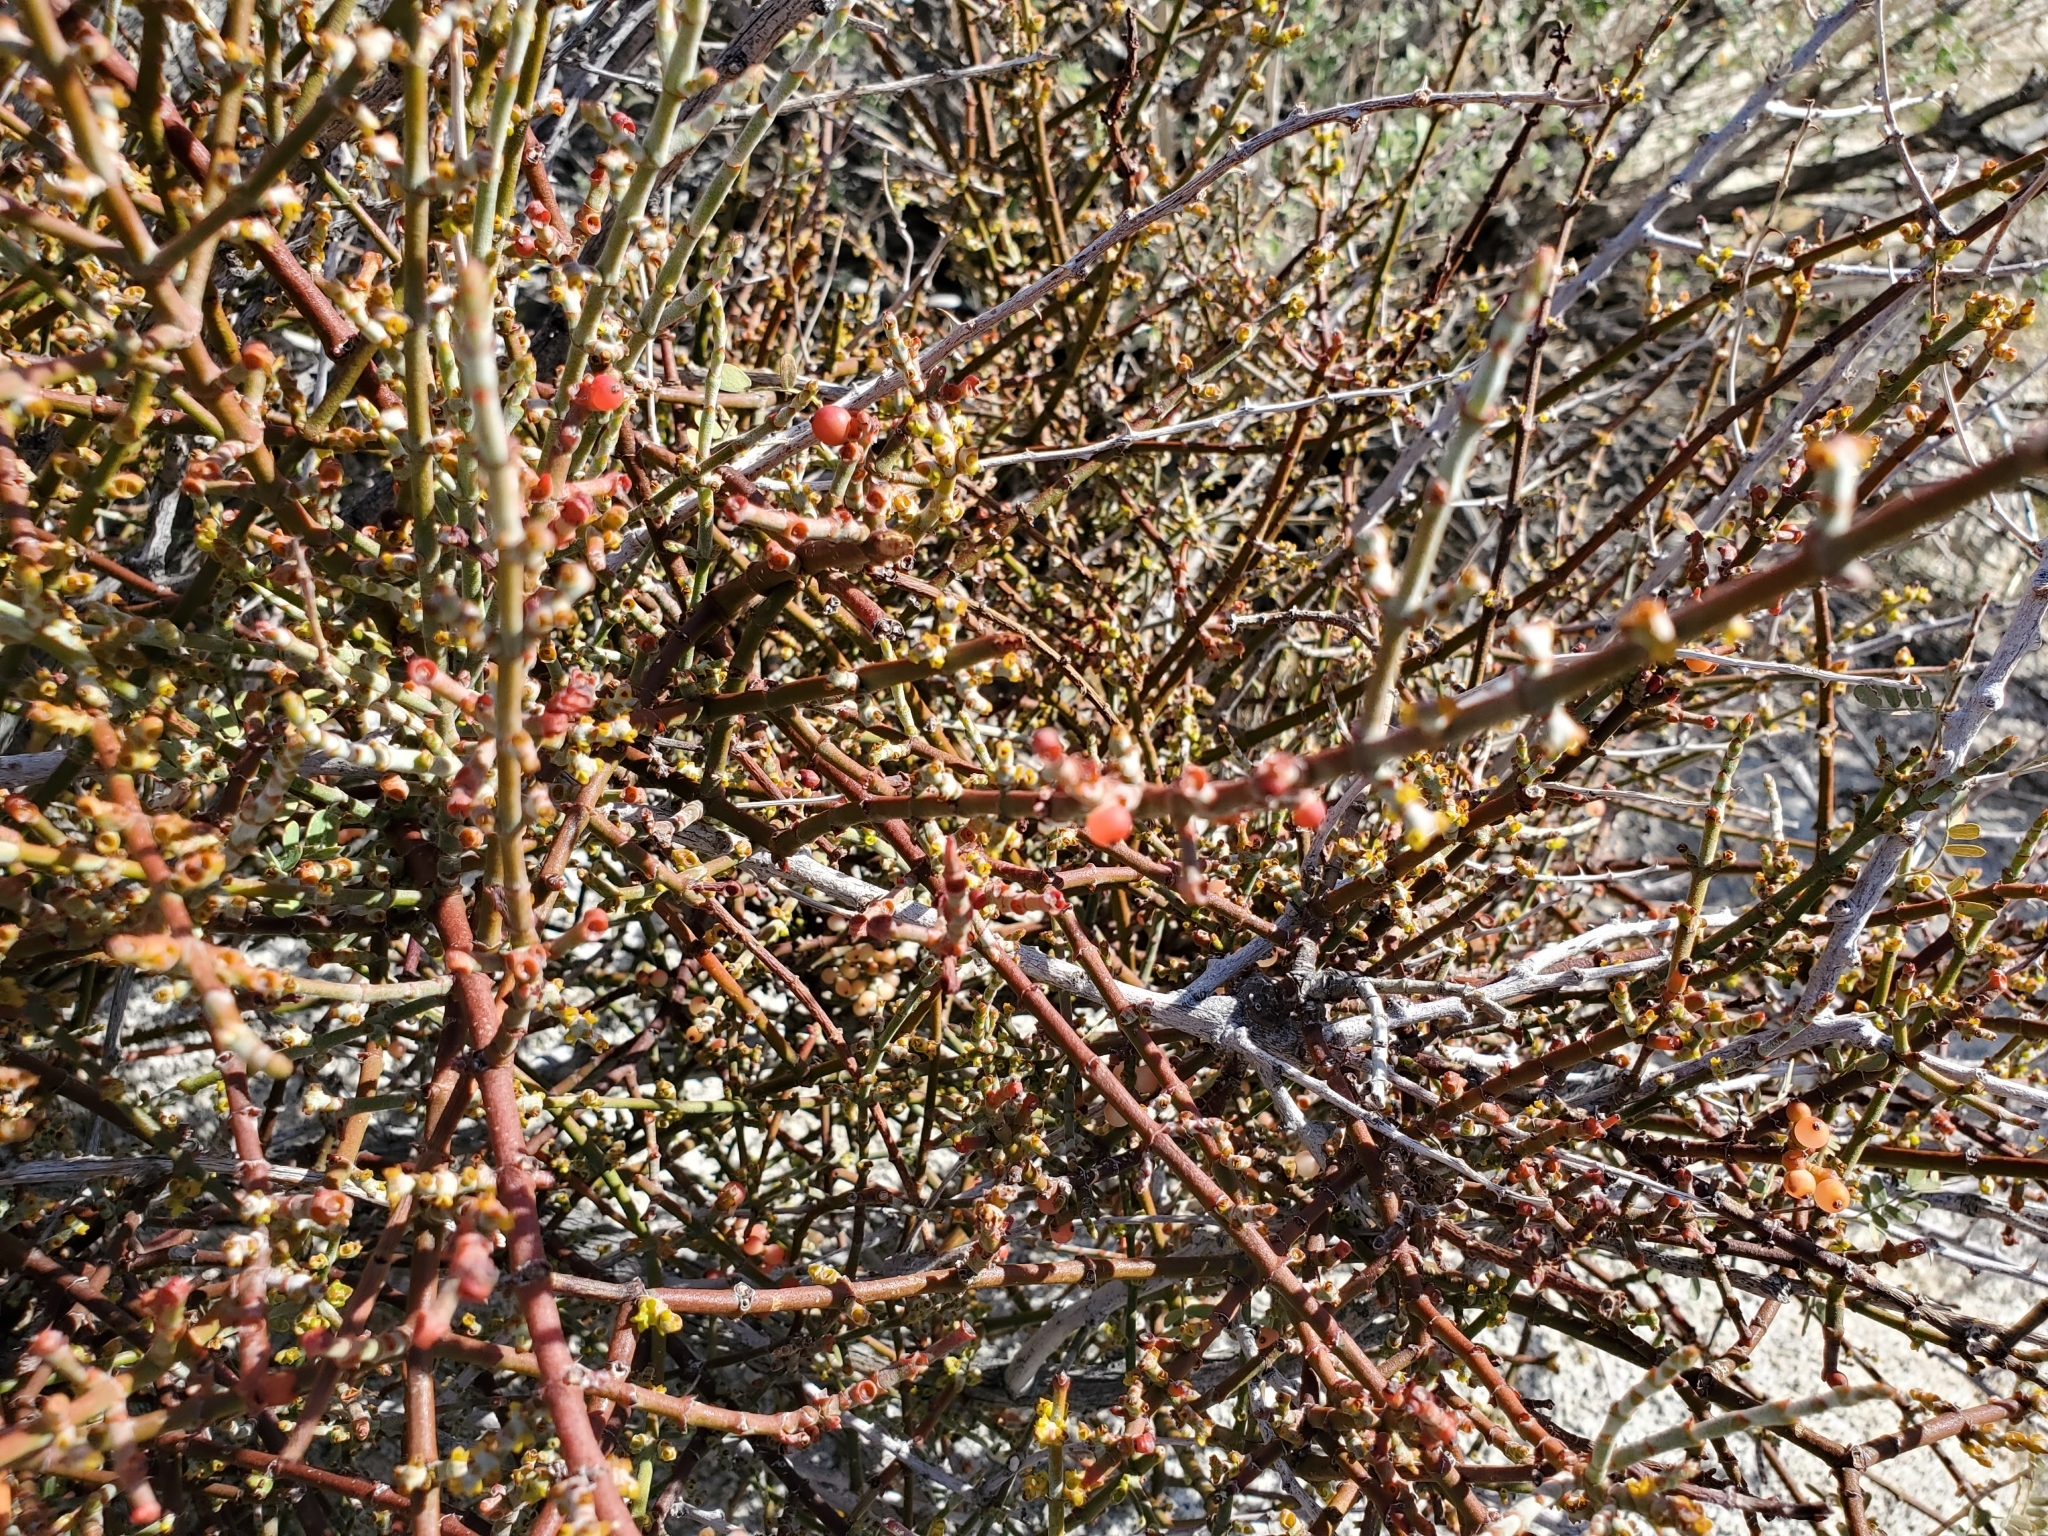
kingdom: Plantae
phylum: Tracheophyta
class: Magnoliopsida
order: Fabales
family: Fabaceae
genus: Senegalia
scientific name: Senegalia greggii
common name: Texas-mimosa
